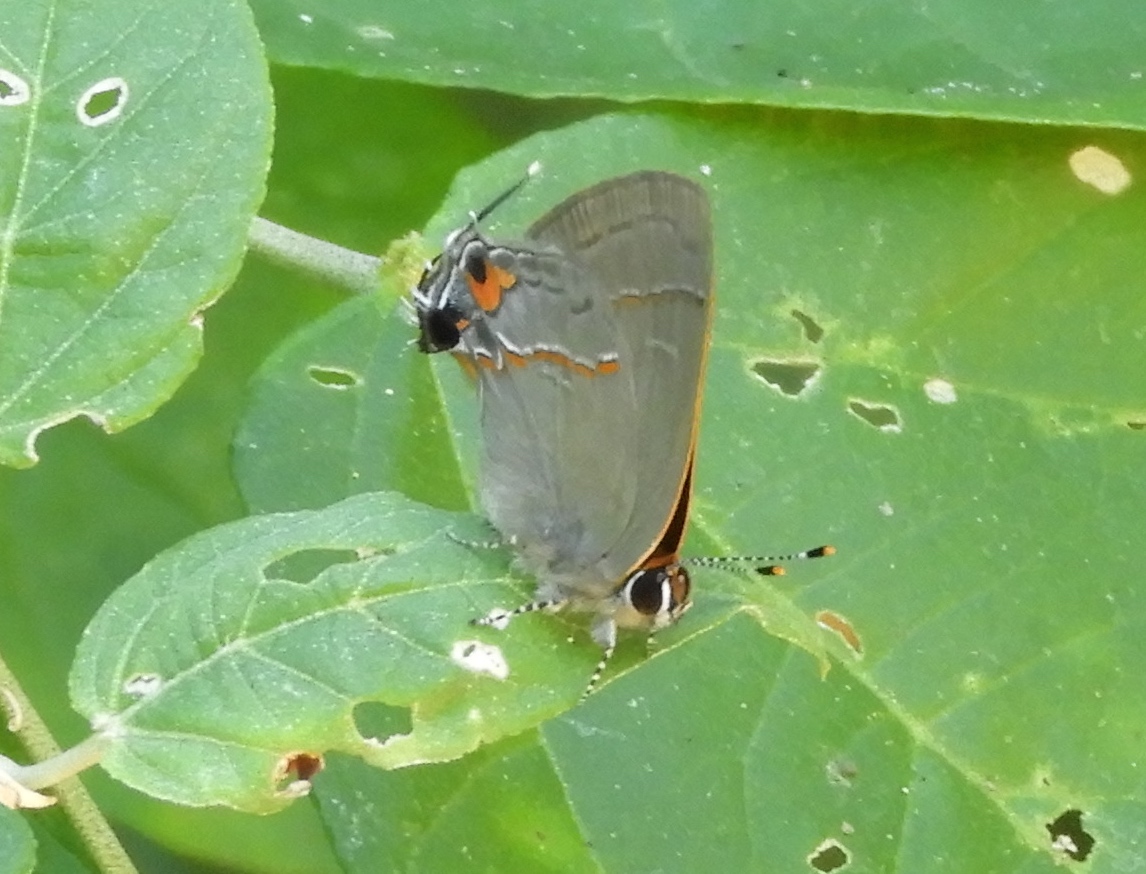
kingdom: Animalia
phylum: Arthropoda
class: Insecta
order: Lepidoptera
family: Lycaenidae
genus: Electrostrymon
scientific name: Electrostrymon endymion
